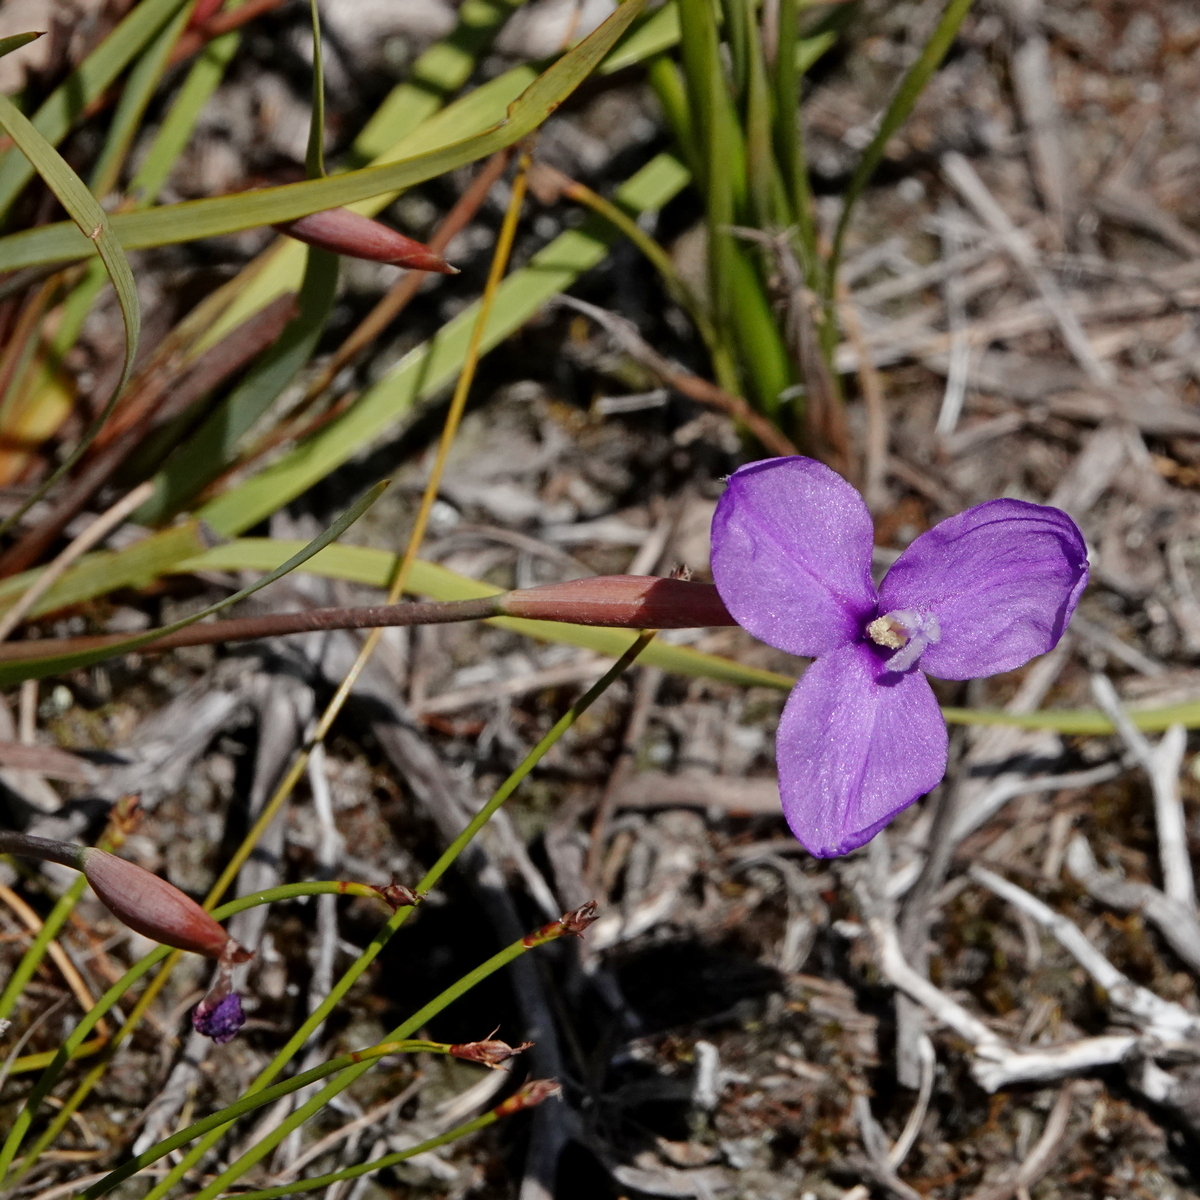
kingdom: Plantae
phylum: Tracheophyta
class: Liliopsida
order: Asparagales
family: Iridaceae
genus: Patersonia
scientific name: Patersonia fragilis
